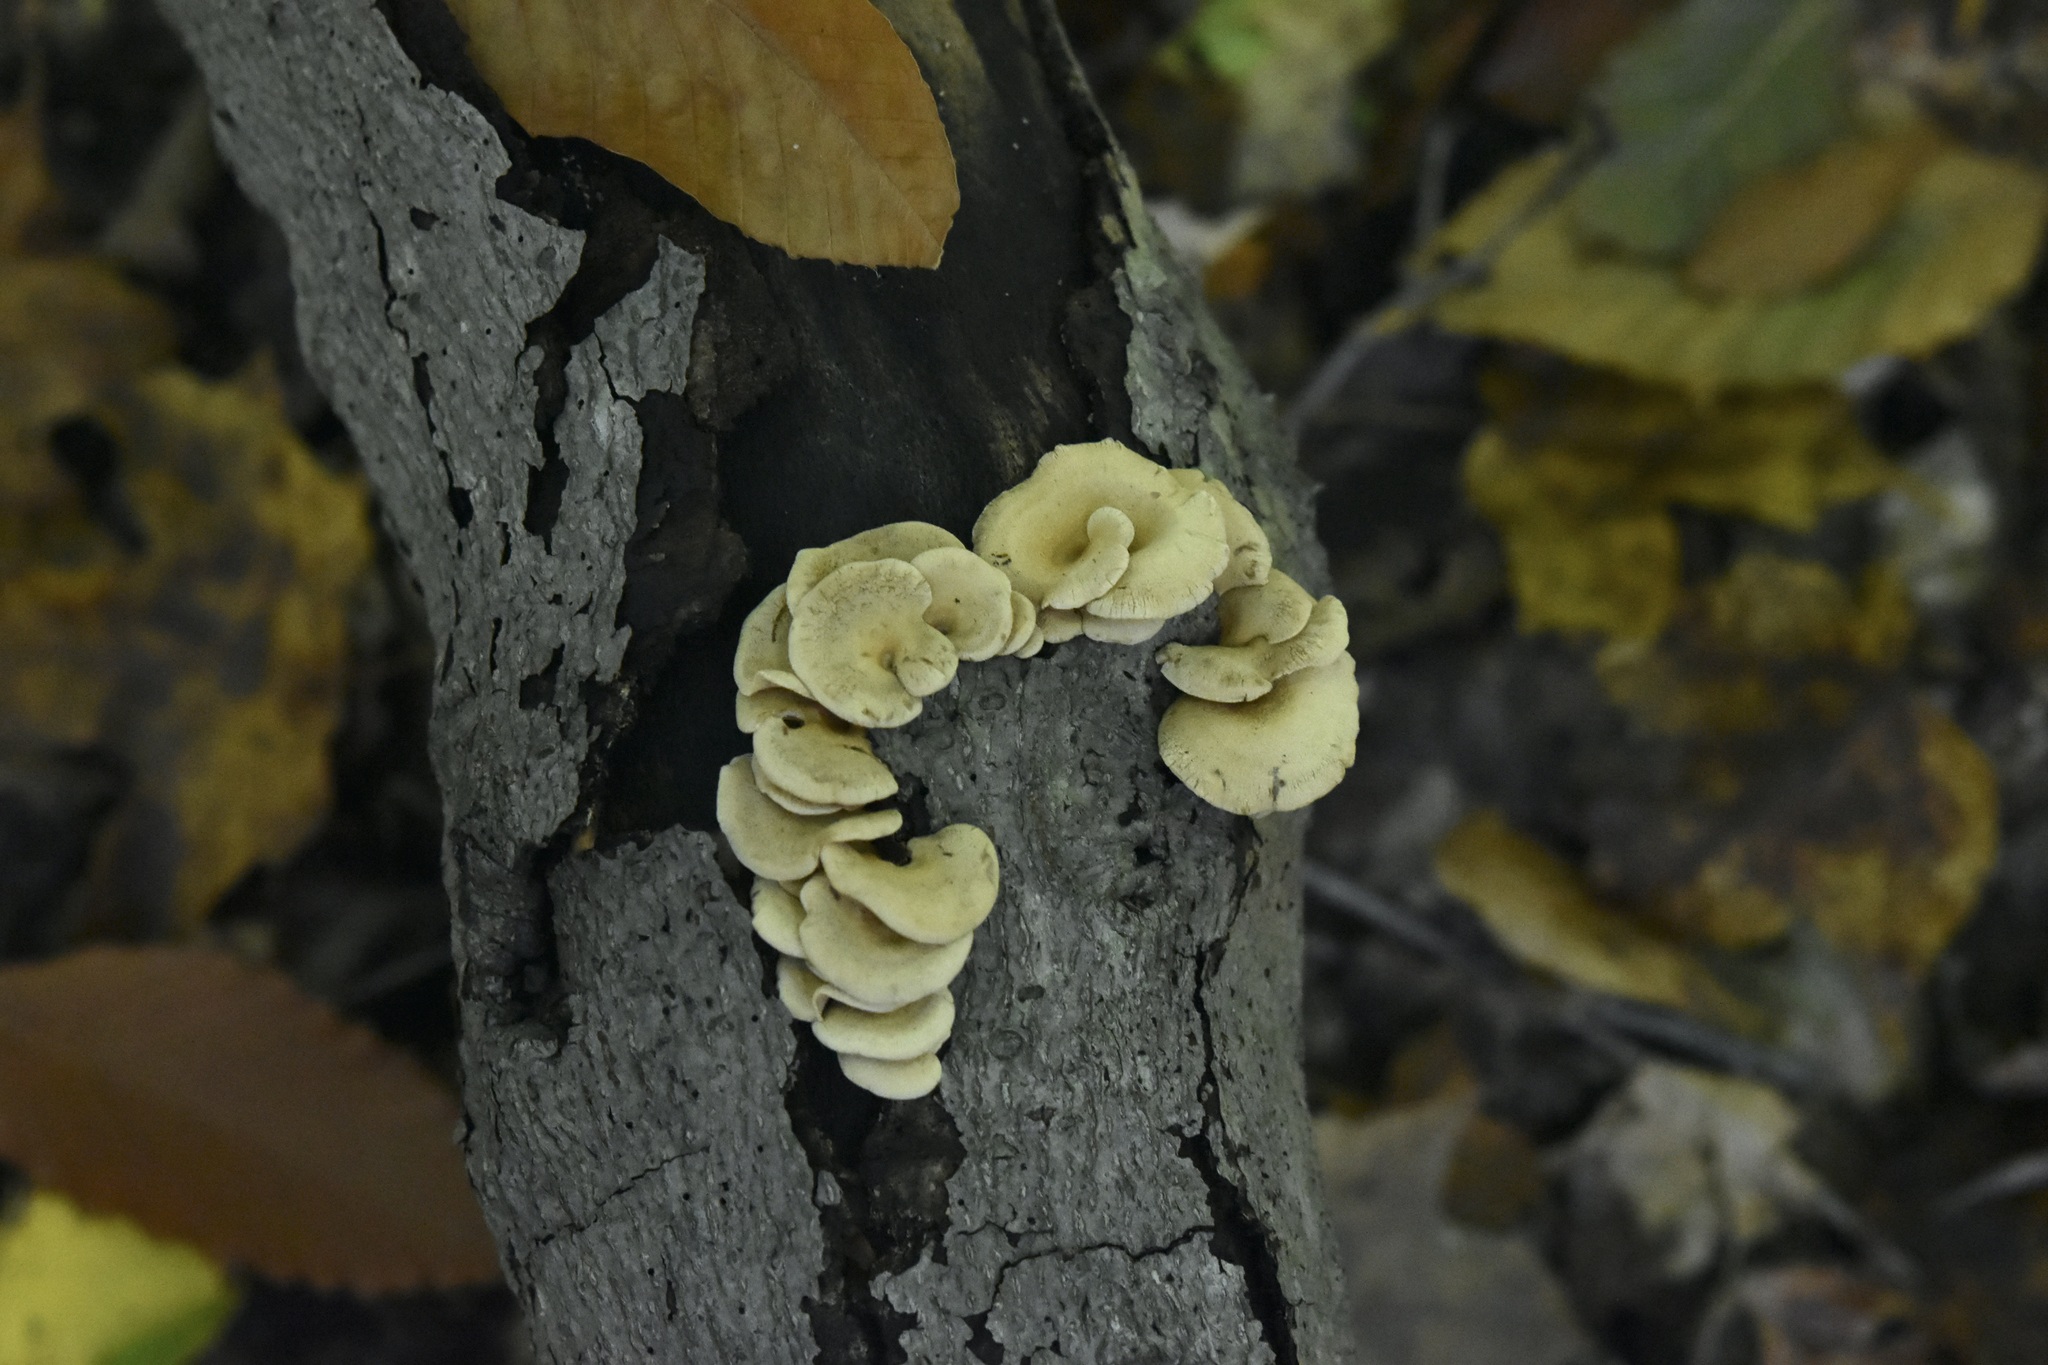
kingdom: Fungi
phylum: Basidiomycota
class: Agaricomycetes
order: Agaricales
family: Mycenaceae
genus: Panellus
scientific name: Panellus stipticus
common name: Bitter oysterling
